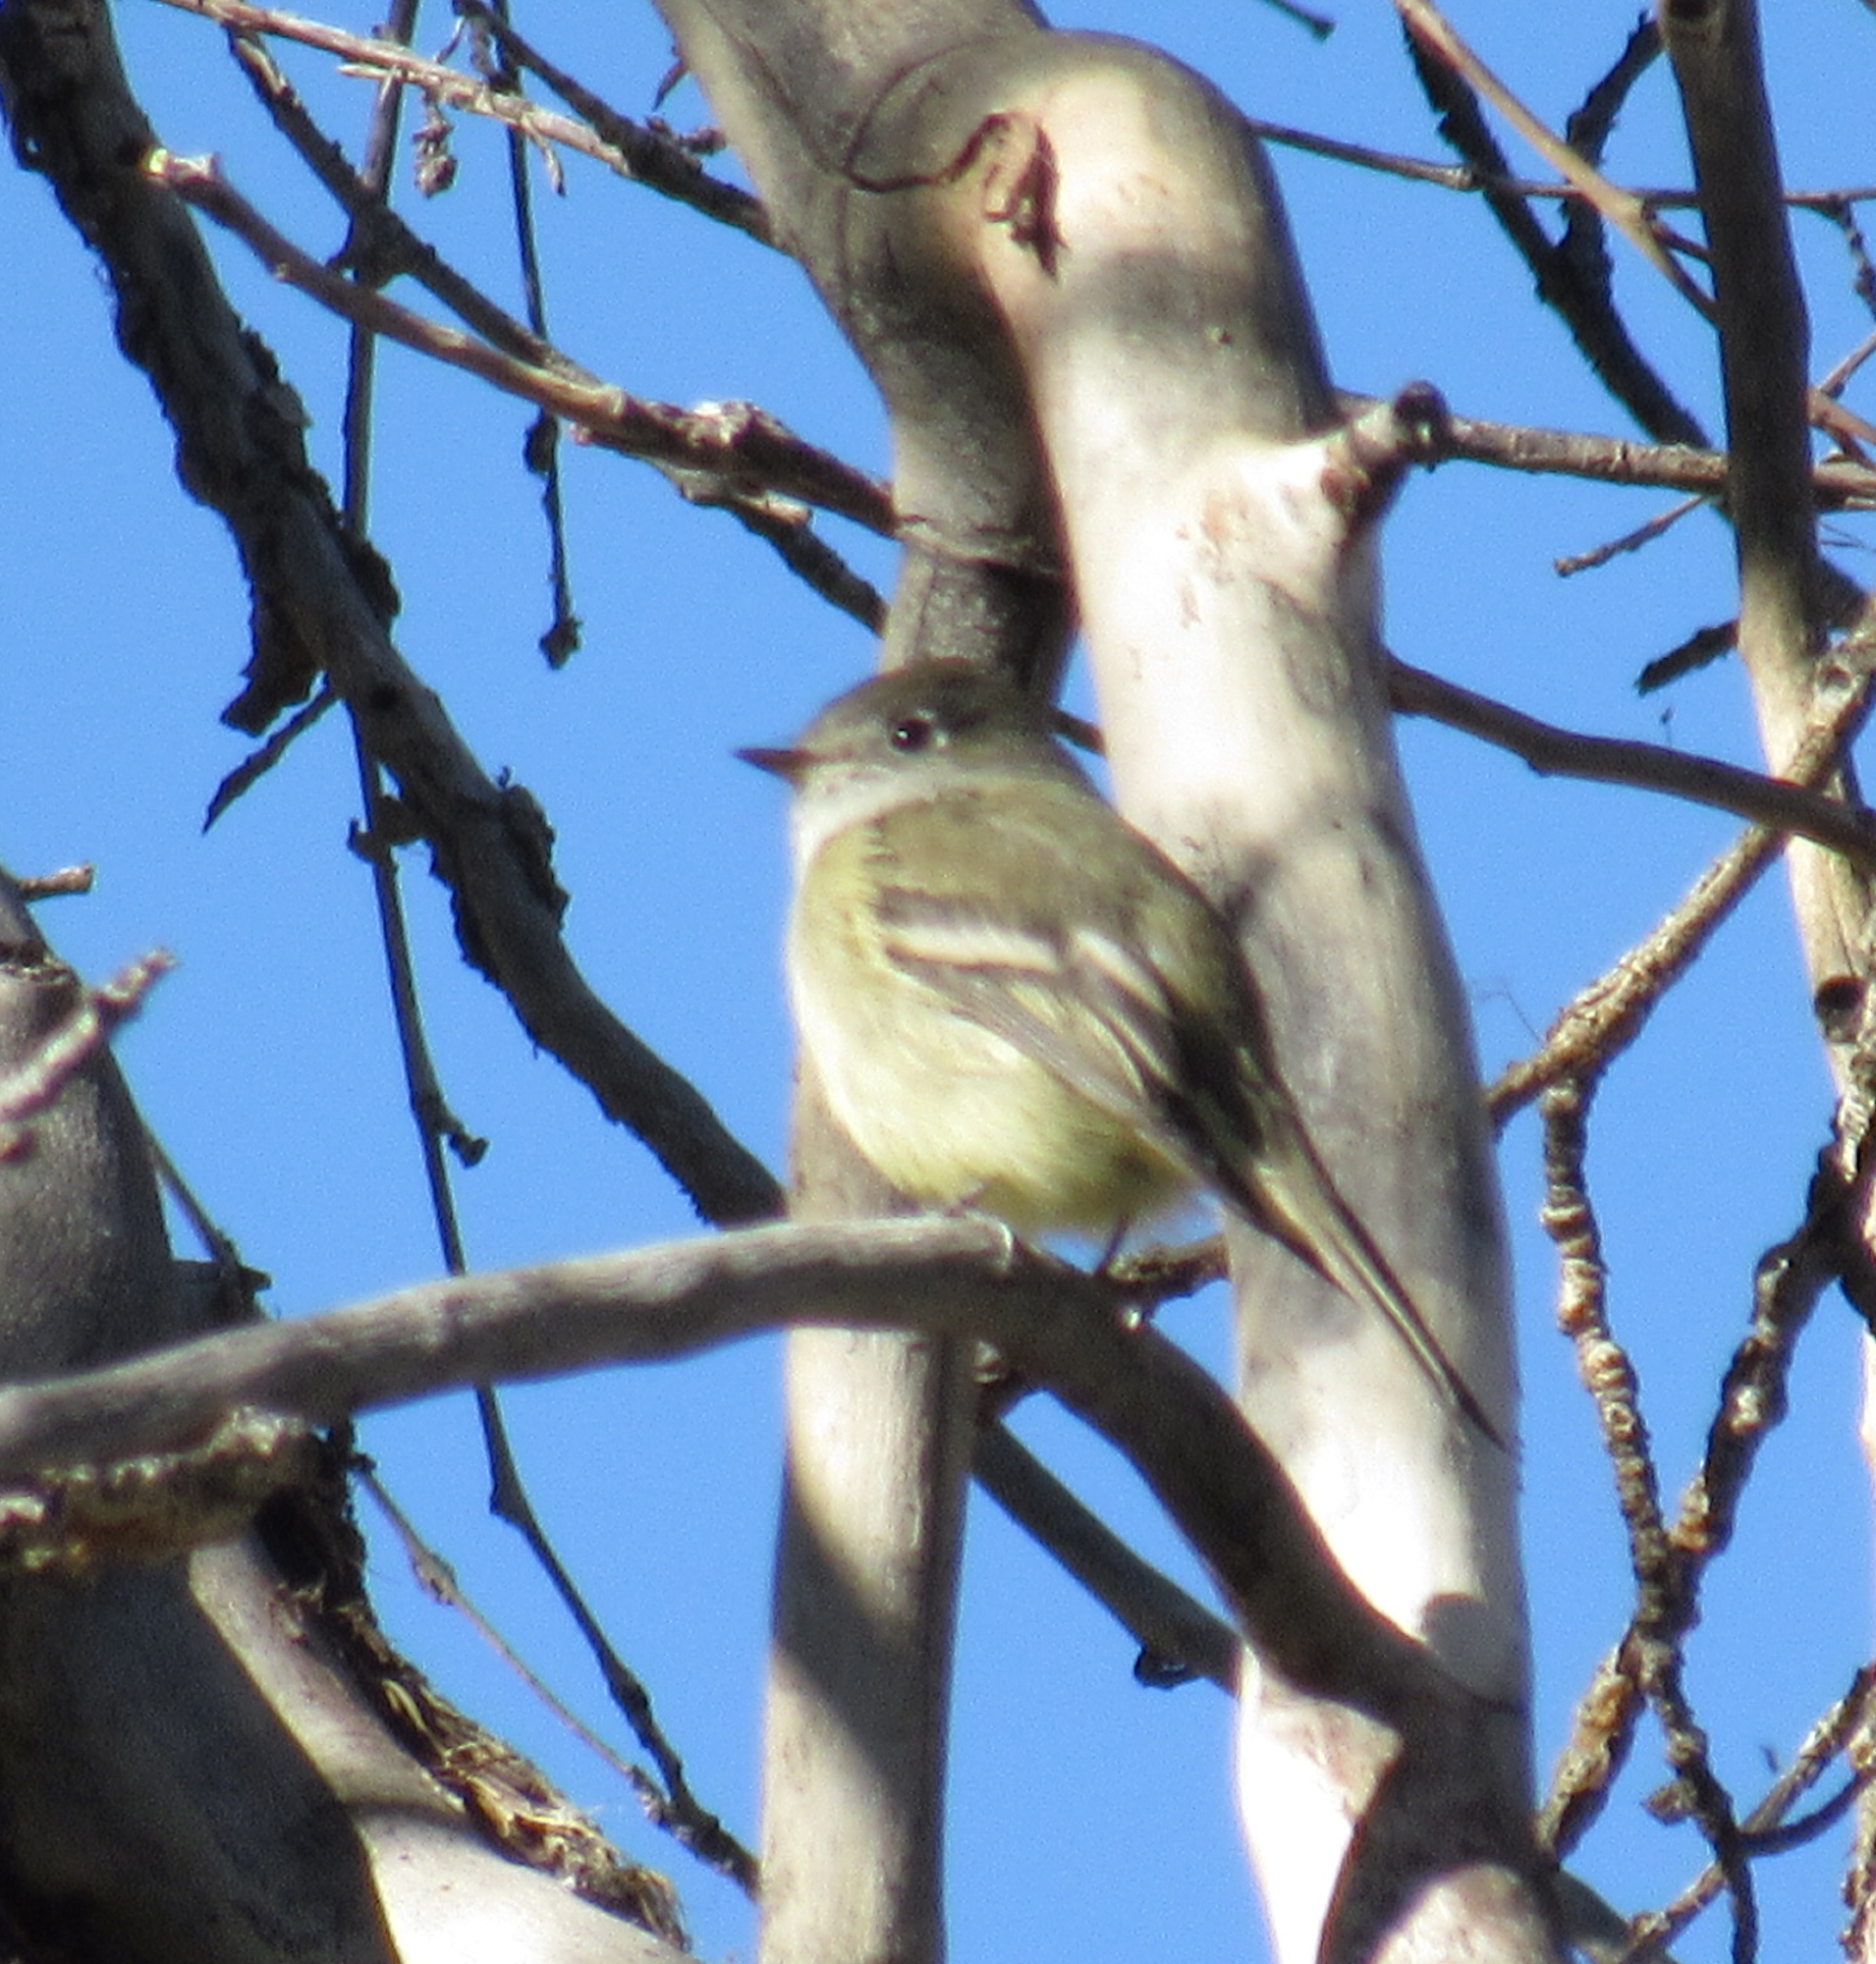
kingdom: Animalia
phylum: Chordata
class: Aves
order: Passeriformes
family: Tyrannidae
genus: Empidonax
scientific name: Empidonax hammondii
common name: Hammond's flycatcher
